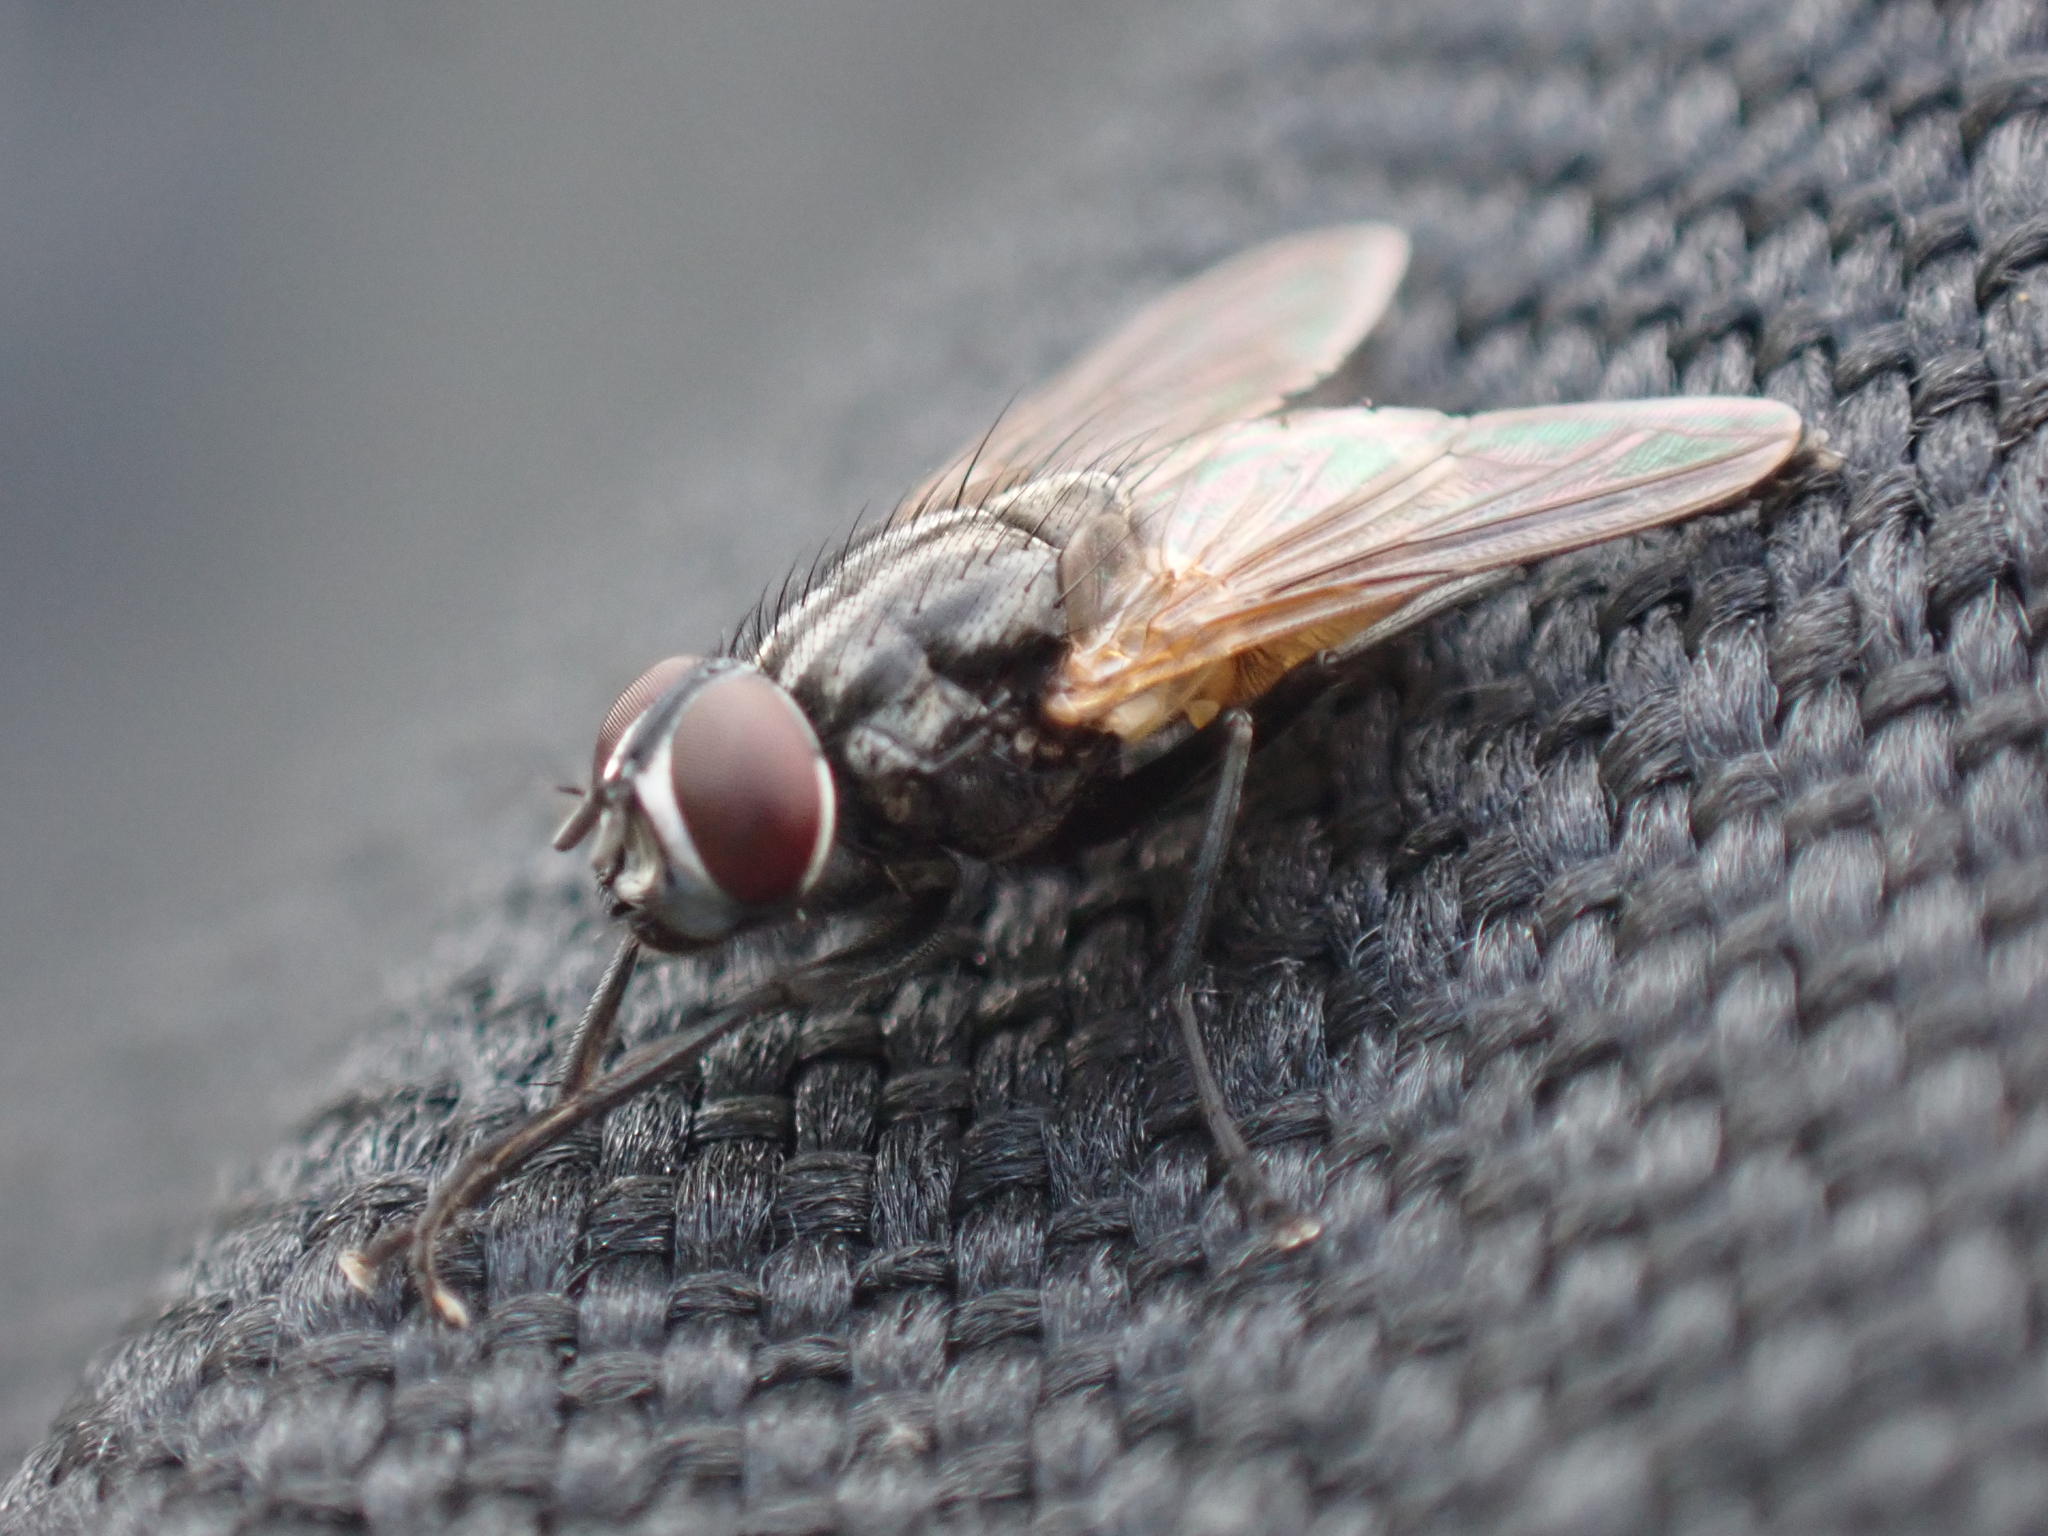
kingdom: Animalia
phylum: Arthropoda
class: Insecta
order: Diptera
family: Muscidae
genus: Musca
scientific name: Musca domestica
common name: House fly
